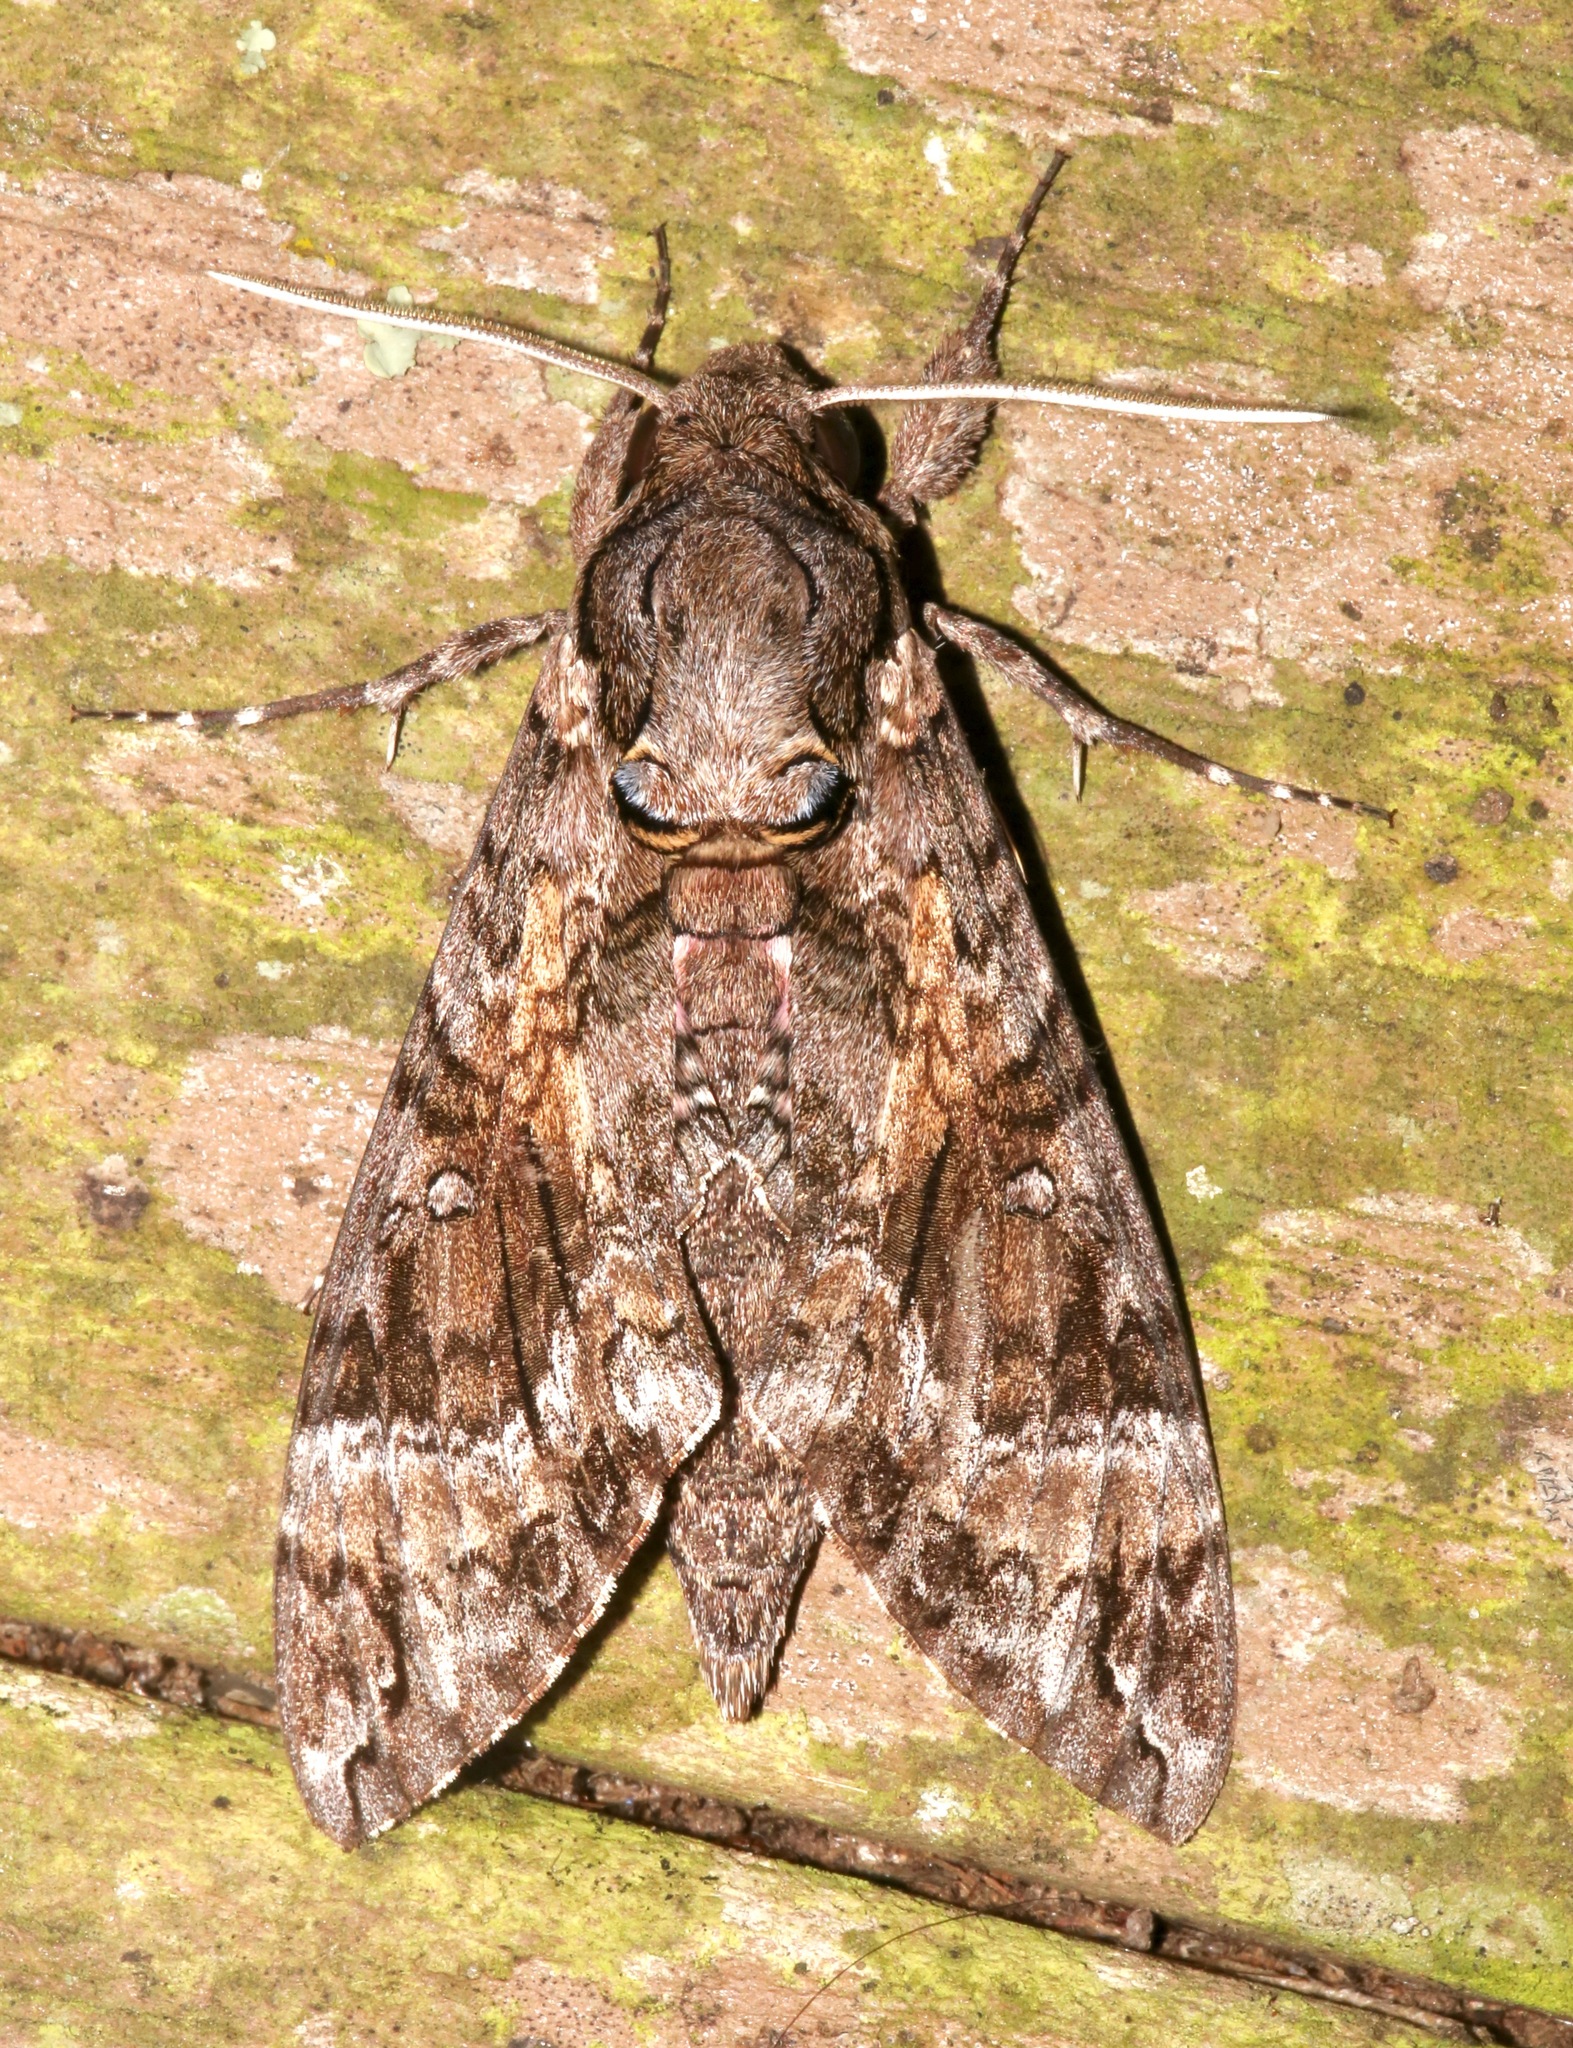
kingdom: Animalia
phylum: Arthropoda
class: Insecta
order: Lepidoptera
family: Sphingidae
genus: Agrius
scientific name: Agrius cingulata
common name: Pink-spotted hawkmoth
